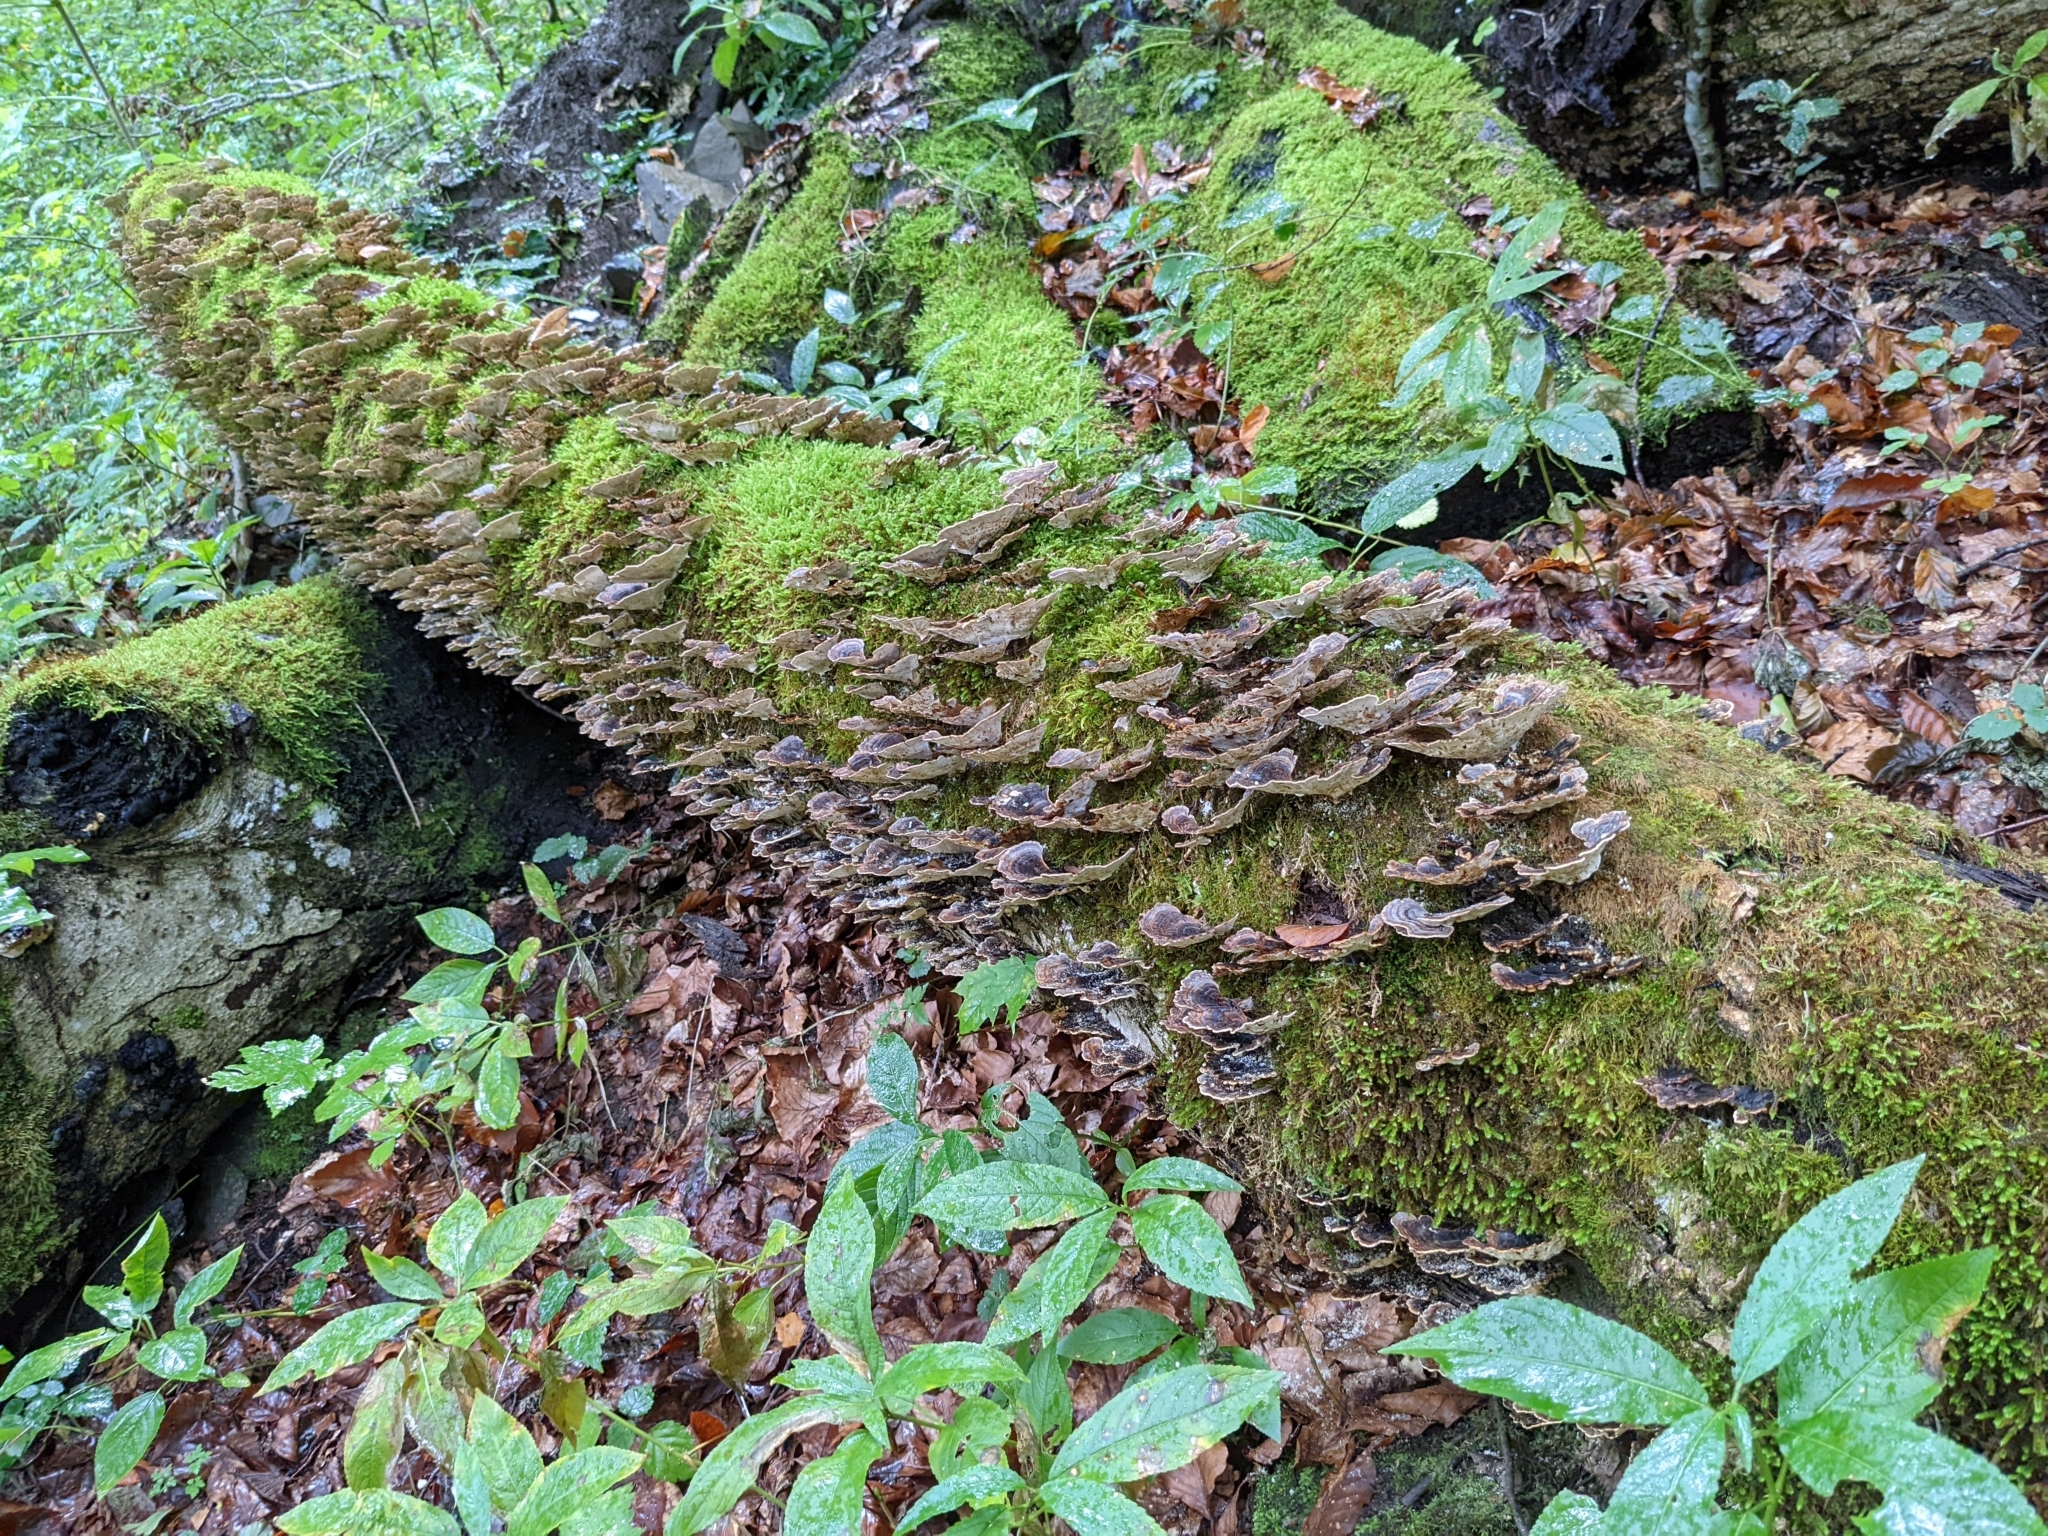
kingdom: Fungi
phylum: Basidiomycota
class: Agaricomycetes
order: Polyporales
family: Polyporaceae
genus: Trametes
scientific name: Trametes versicolor
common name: Turkeytail
